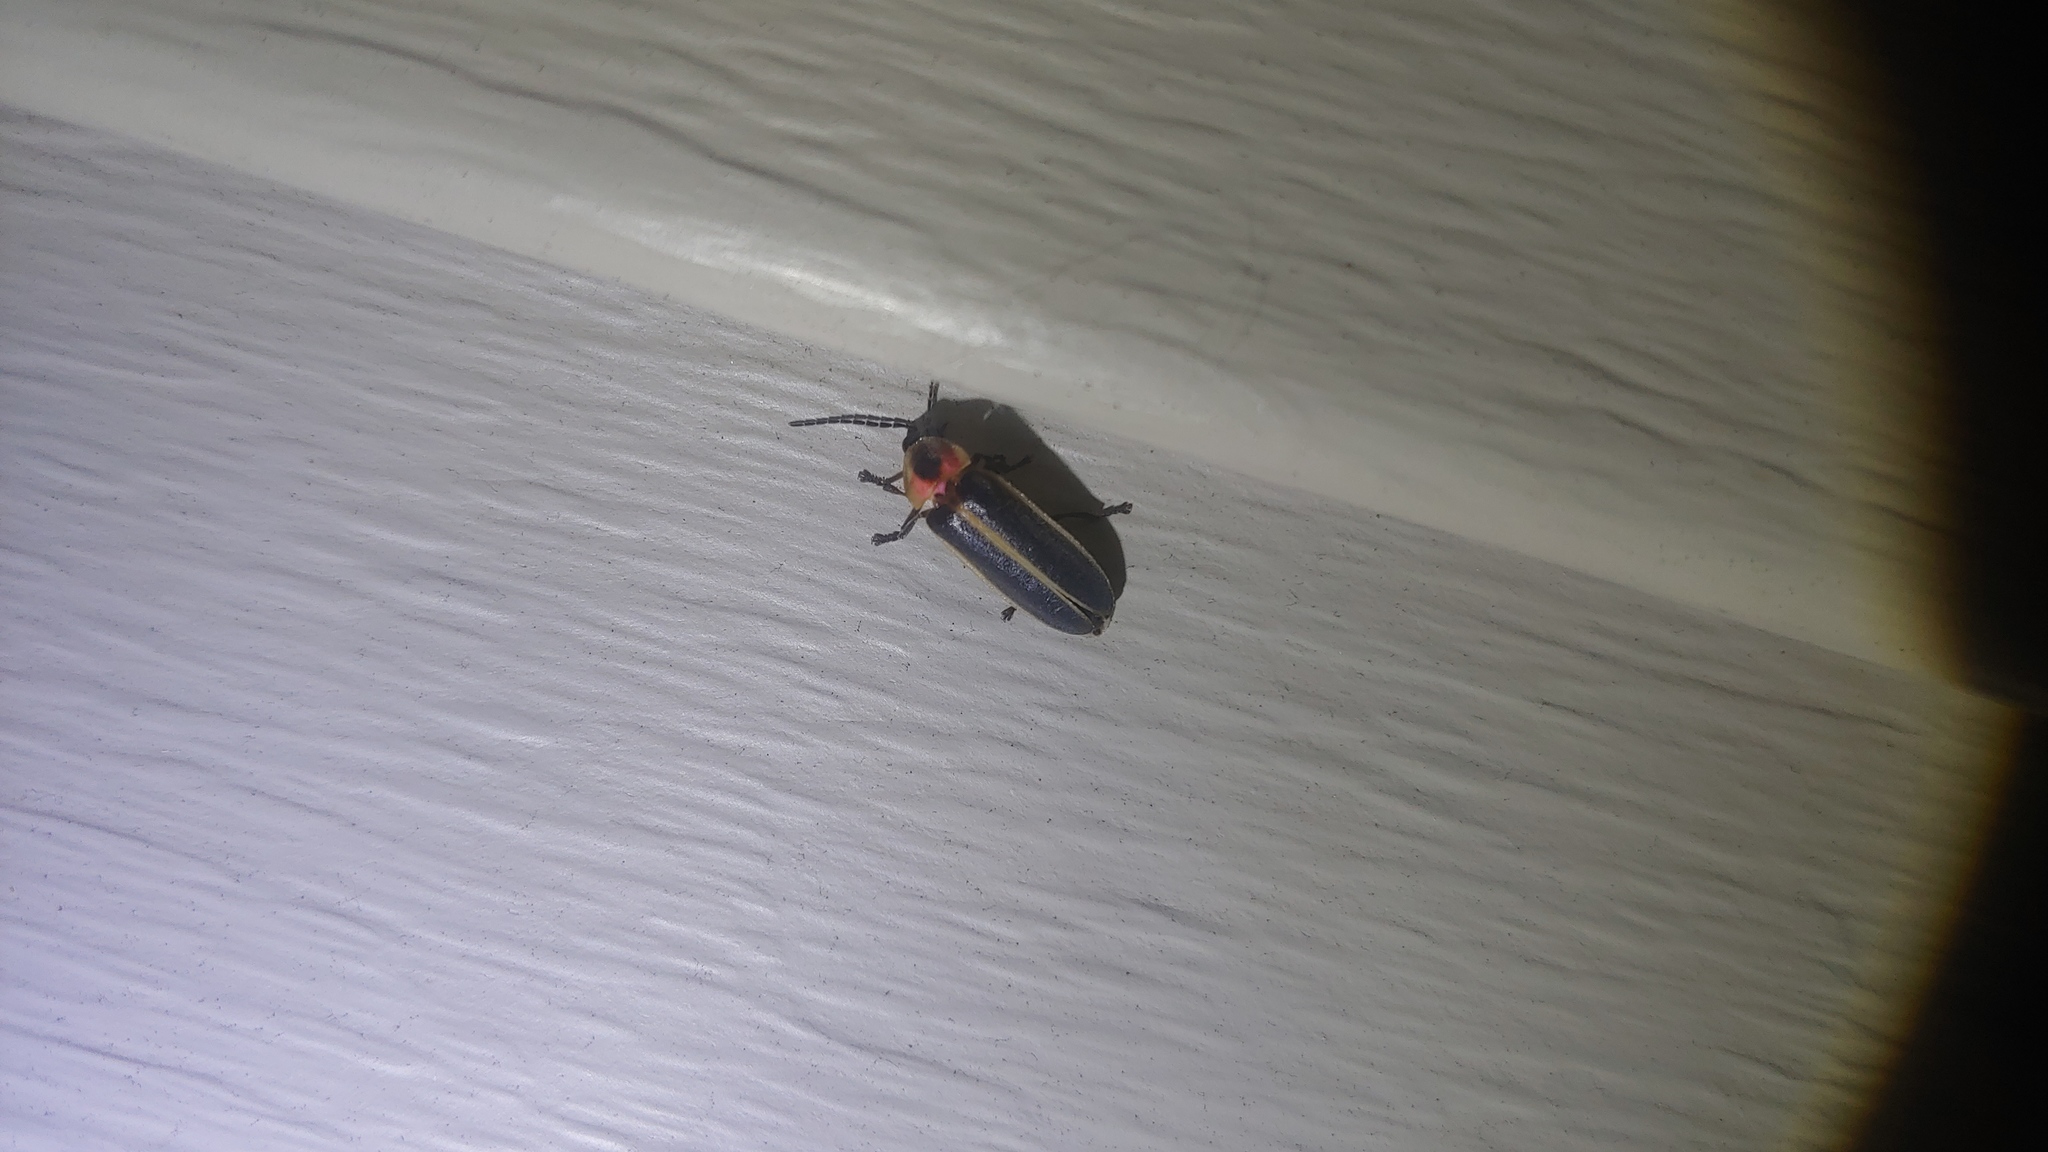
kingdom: Animalia
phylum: Arthropoda
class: Insecta
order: Coleoptera
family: Lampyridae
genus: Photinus
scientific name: Photinus pyralis
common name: Big dipper firefly
